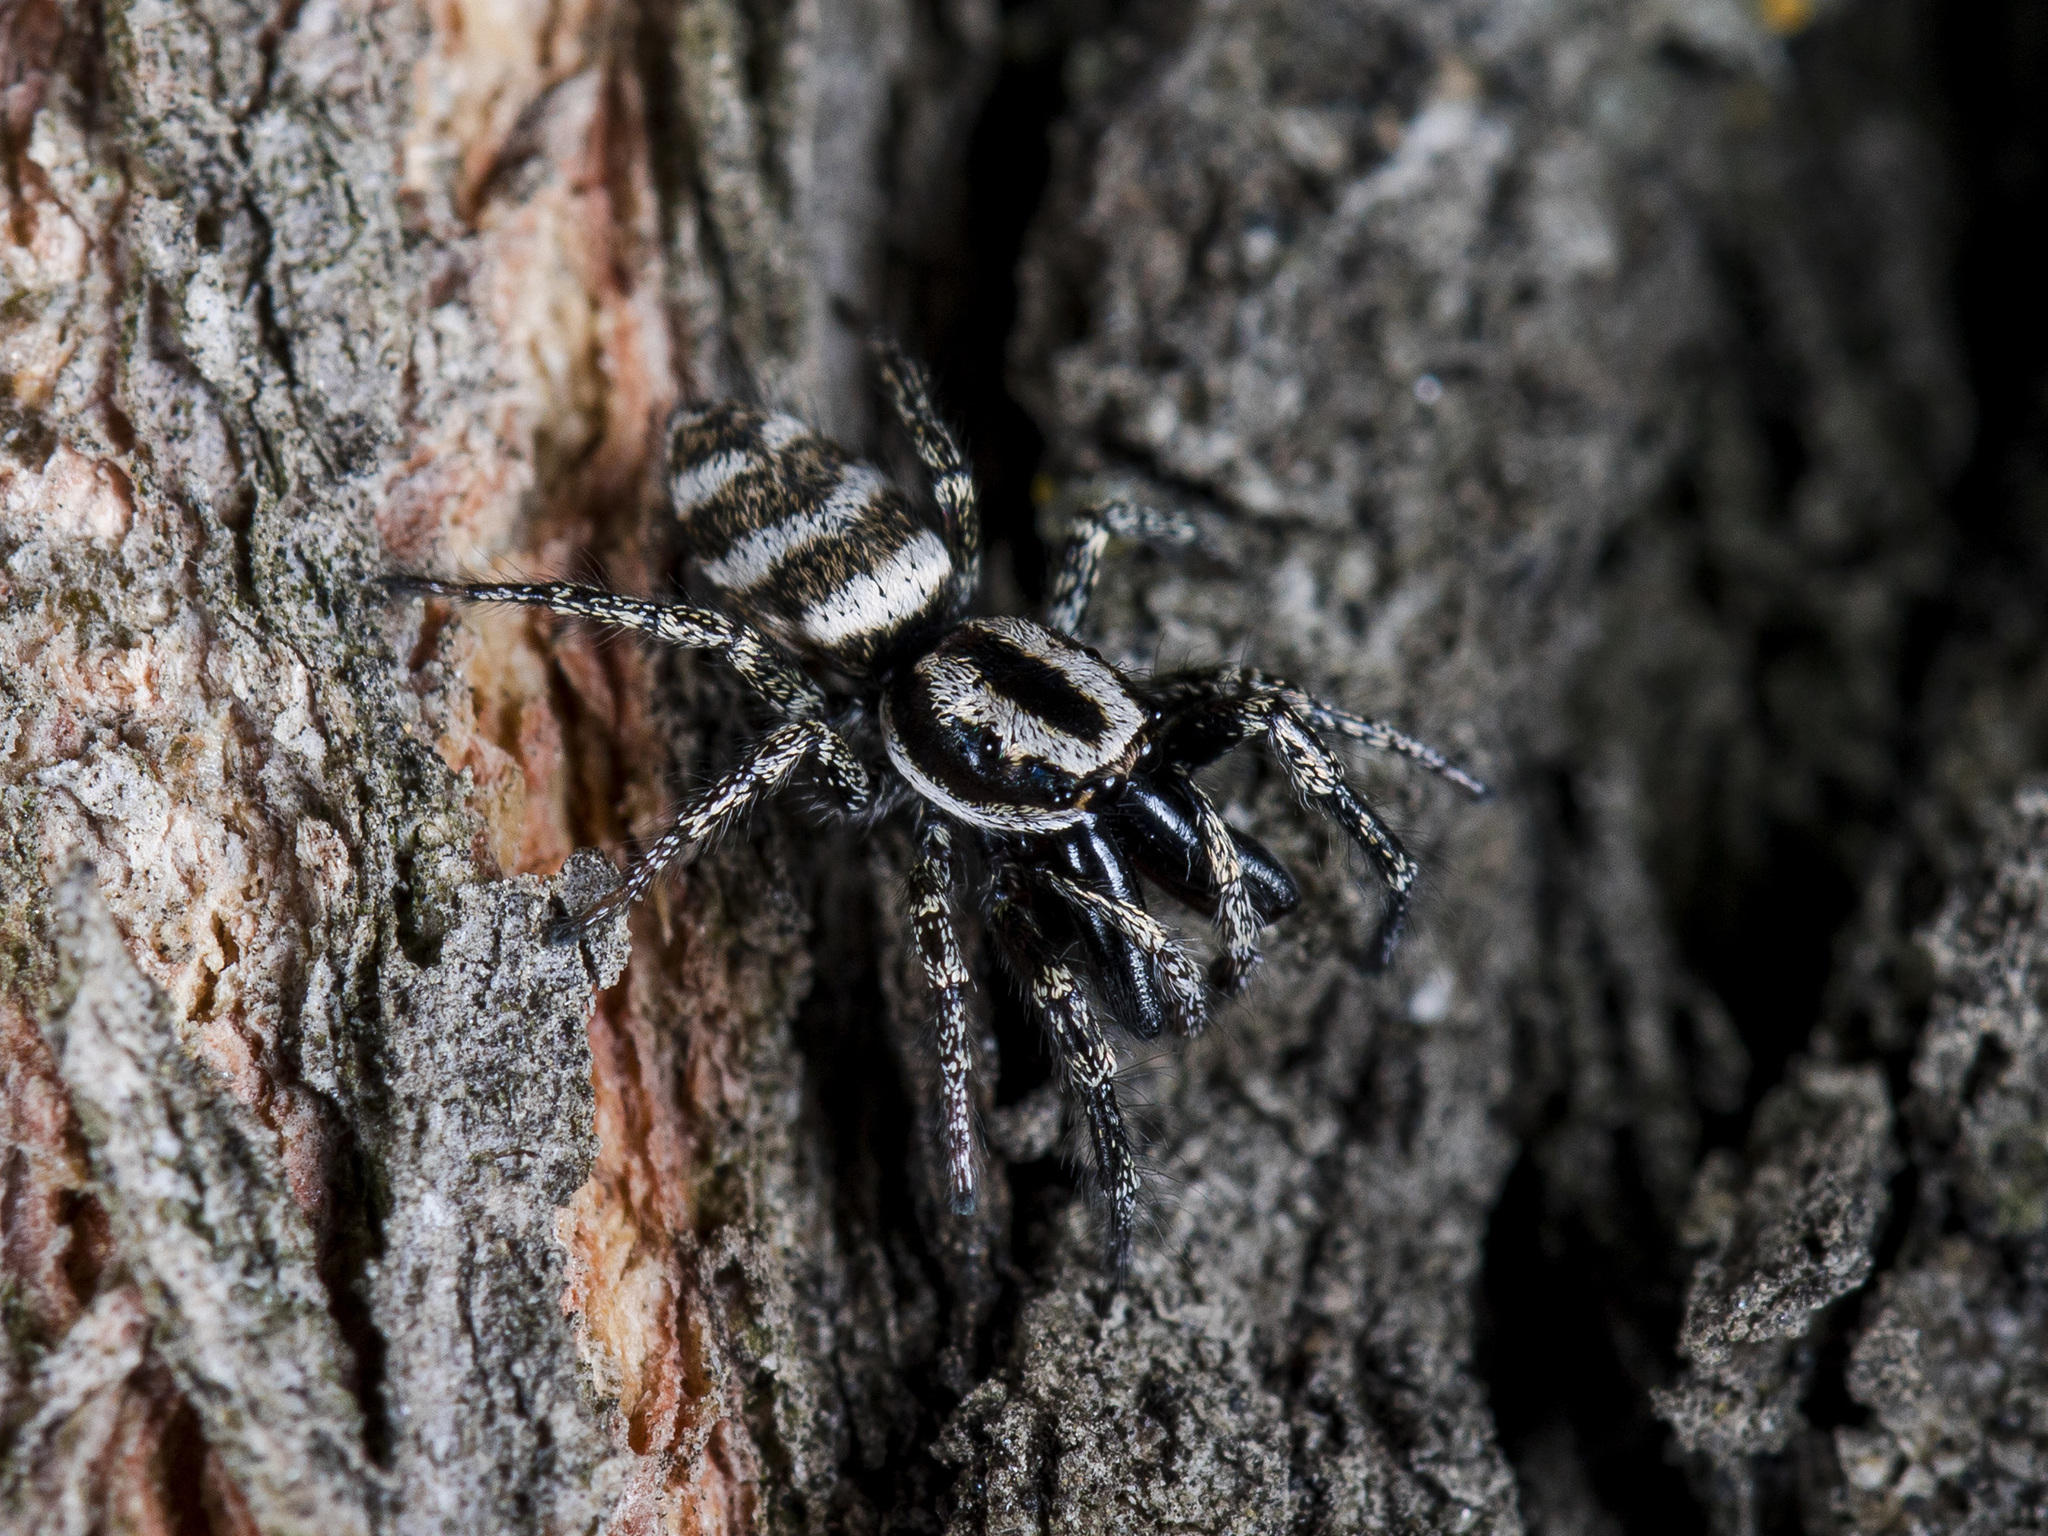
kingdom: Animalia
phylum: Arthropoda
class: Arachnida
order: Araneae
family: Salticidae
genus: Salticus
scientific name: Salticus tricinctus
